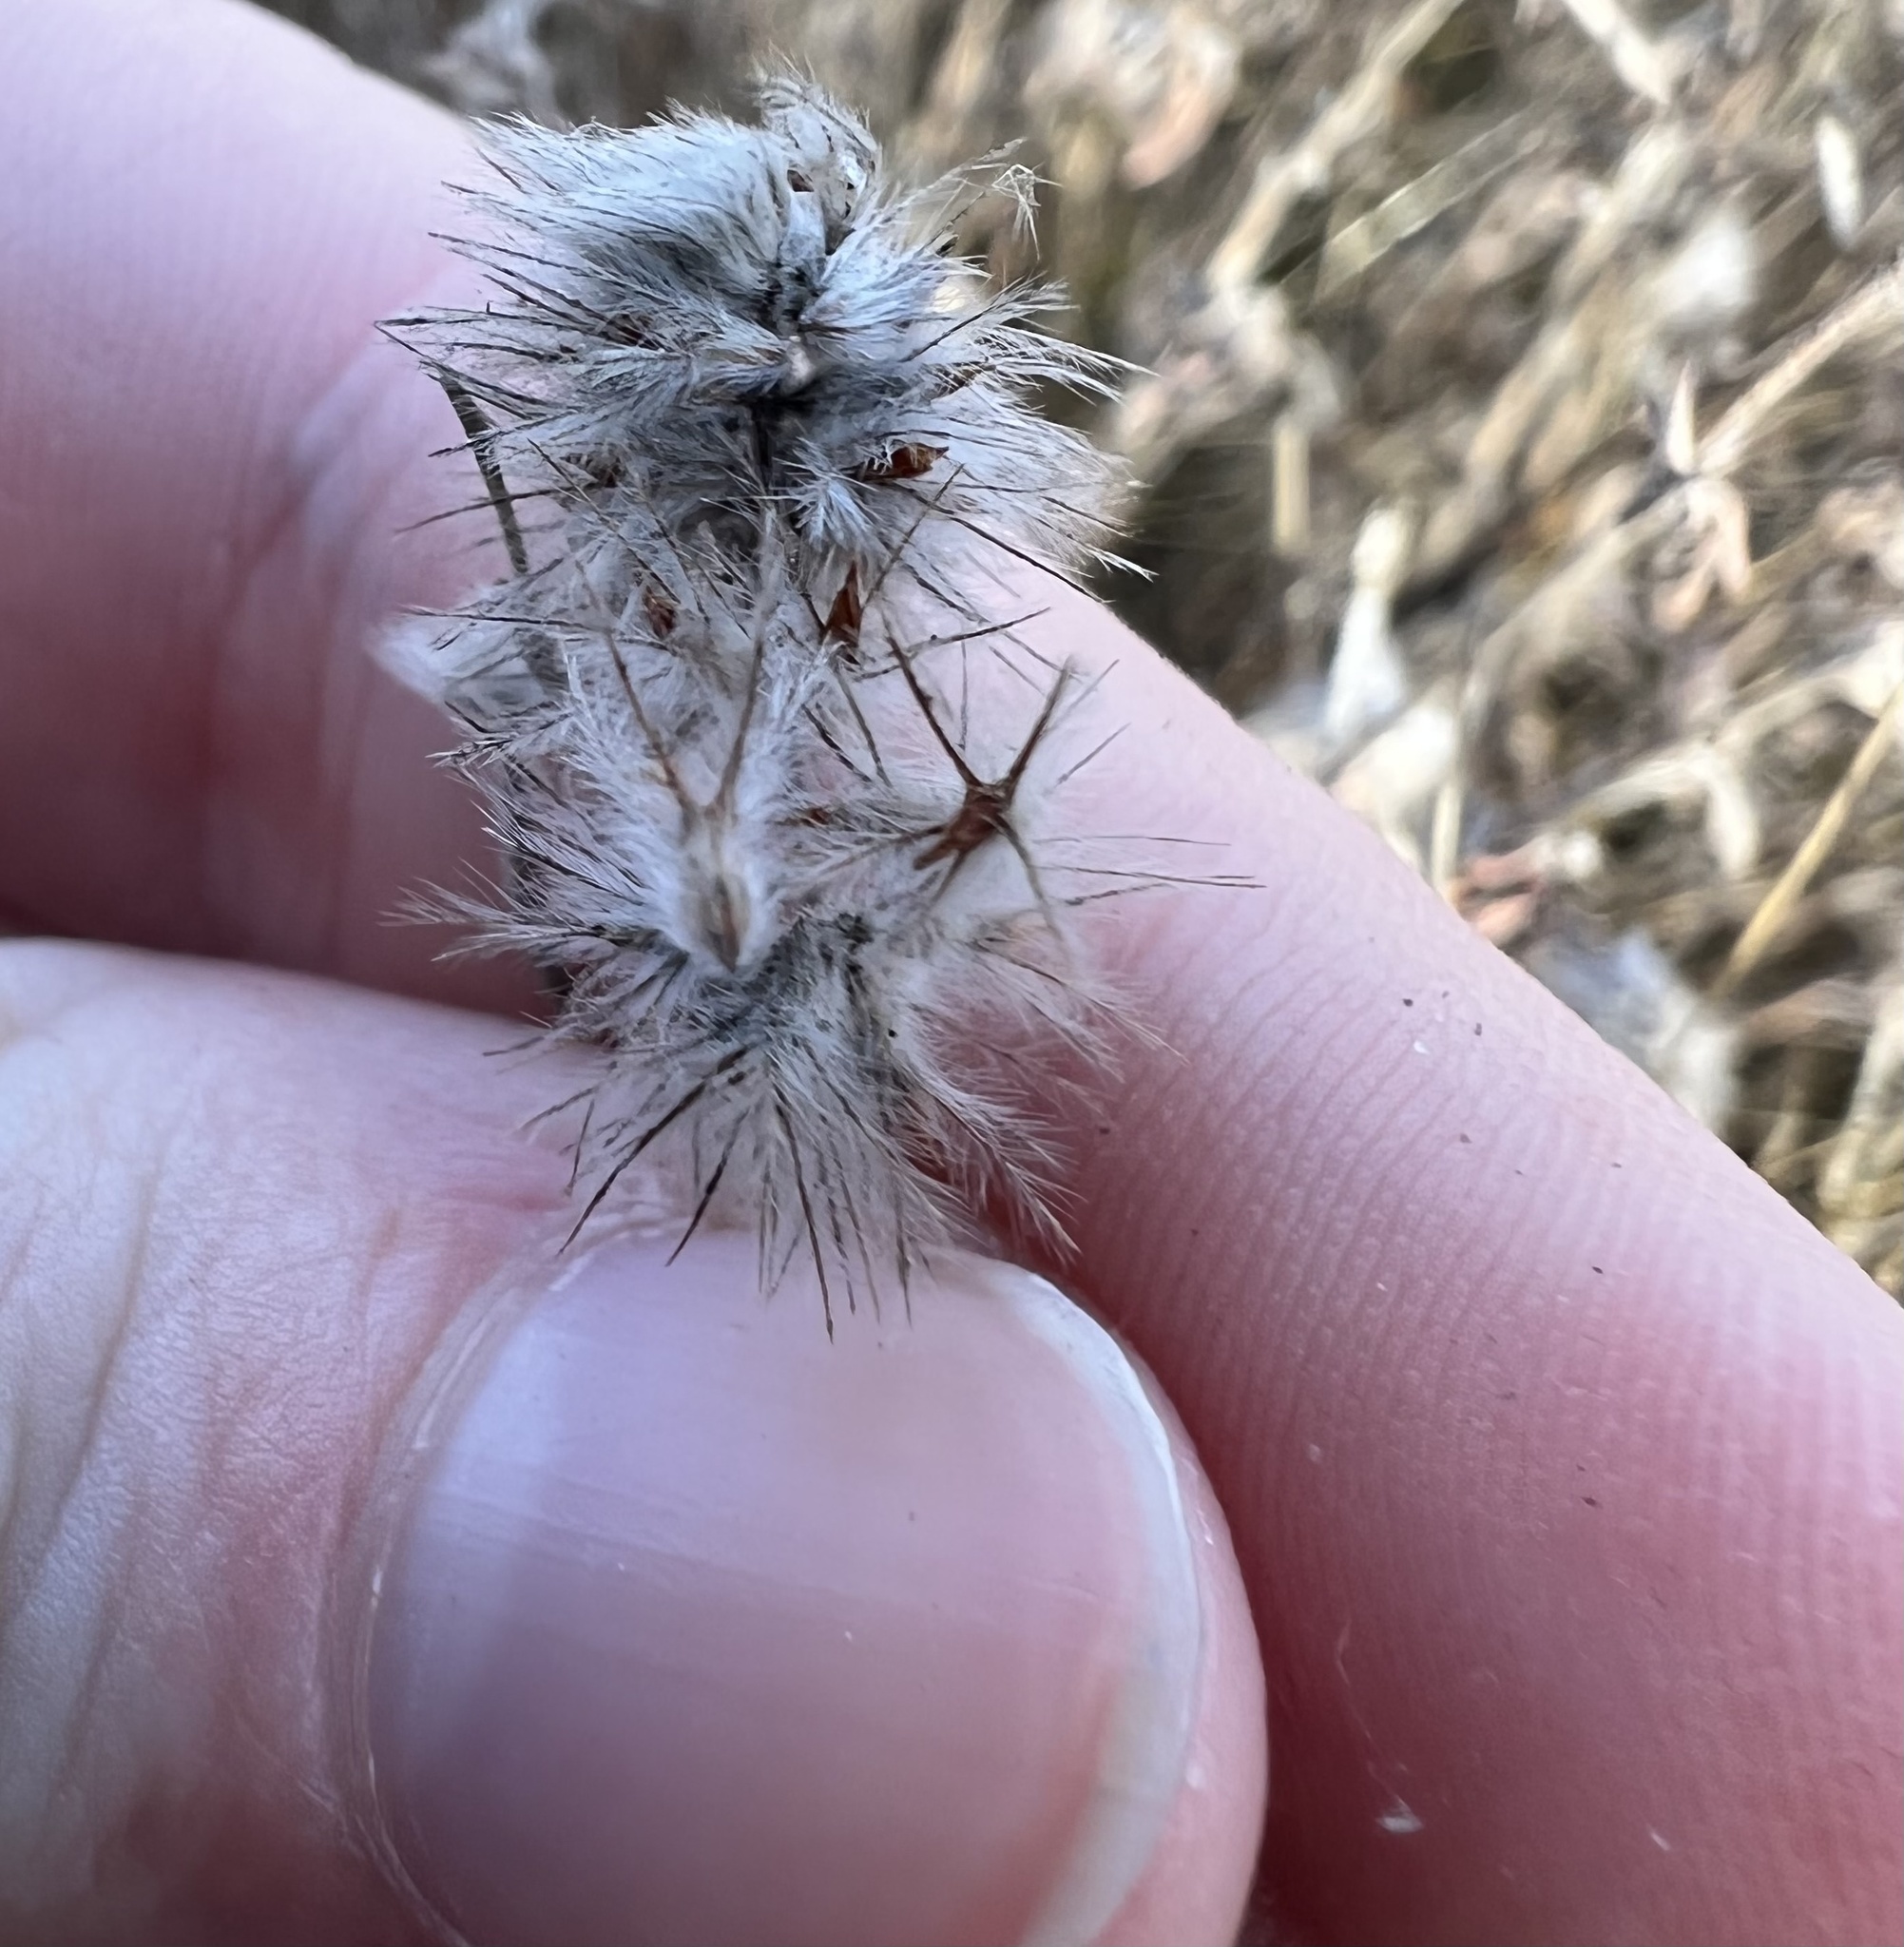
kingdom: Plantae
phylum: Tracheophyta
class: Magnoliopsida
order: Fabales
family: Fabaceae
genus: Trifolium
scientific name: Trifolium arvense
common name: Hare's-foot clover
